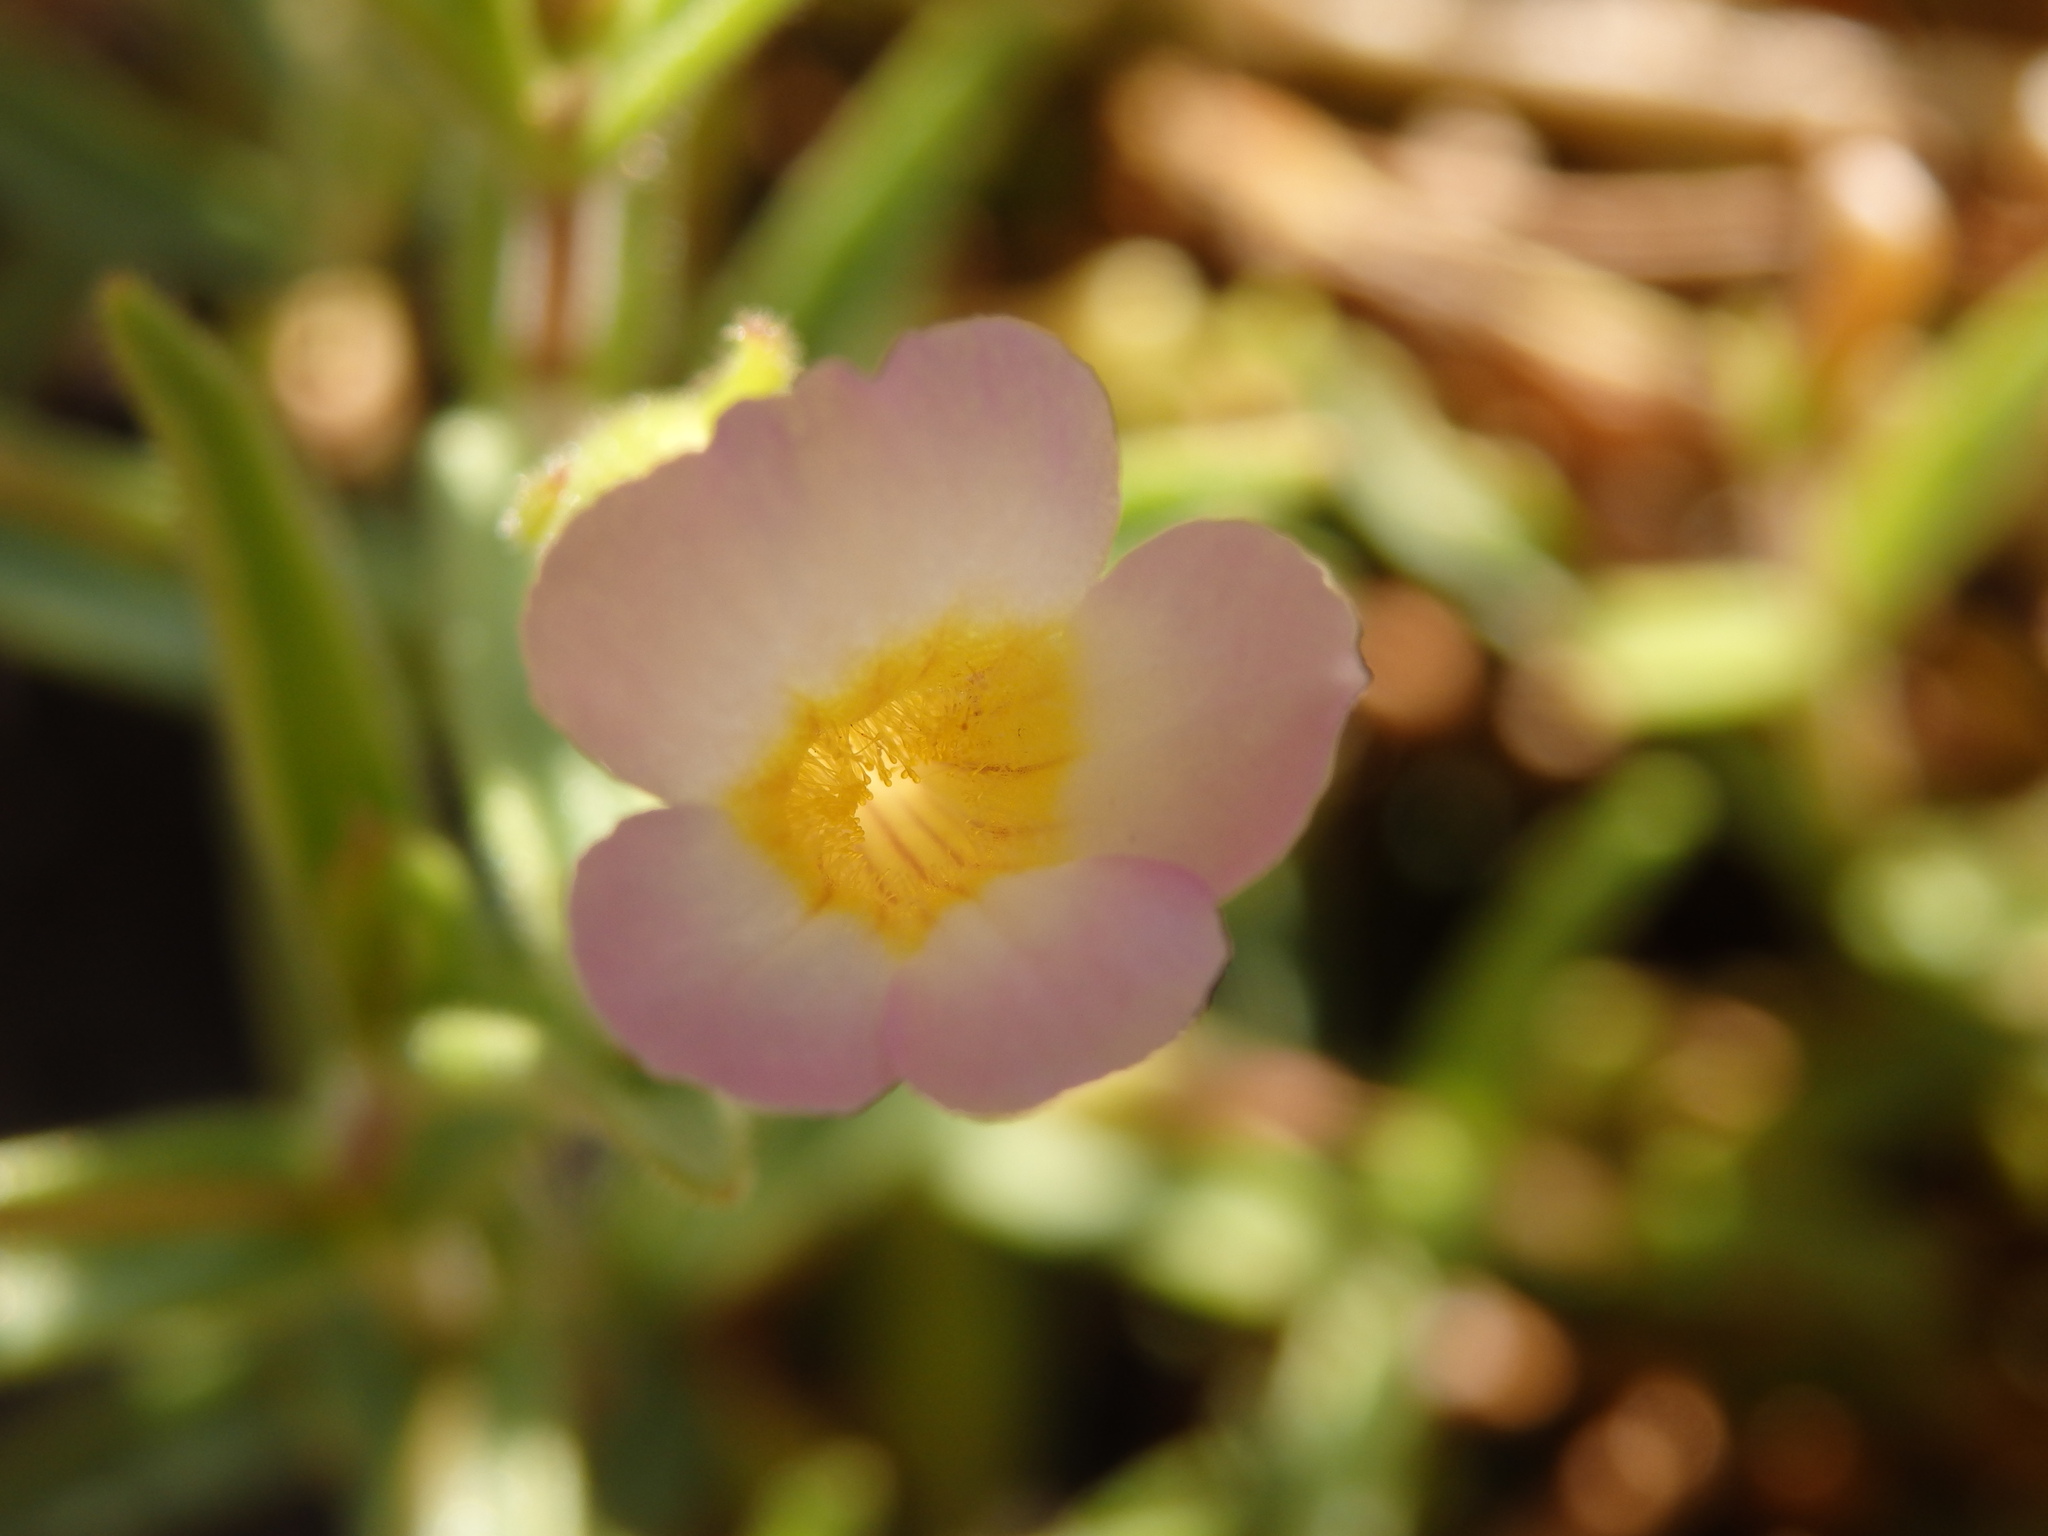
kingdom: Plantae
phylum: Tracheophyta
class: Magnoliopsida
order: Lamiales
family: Plantaginaceae
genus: Gratiola
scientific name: Gratiola linifolia
